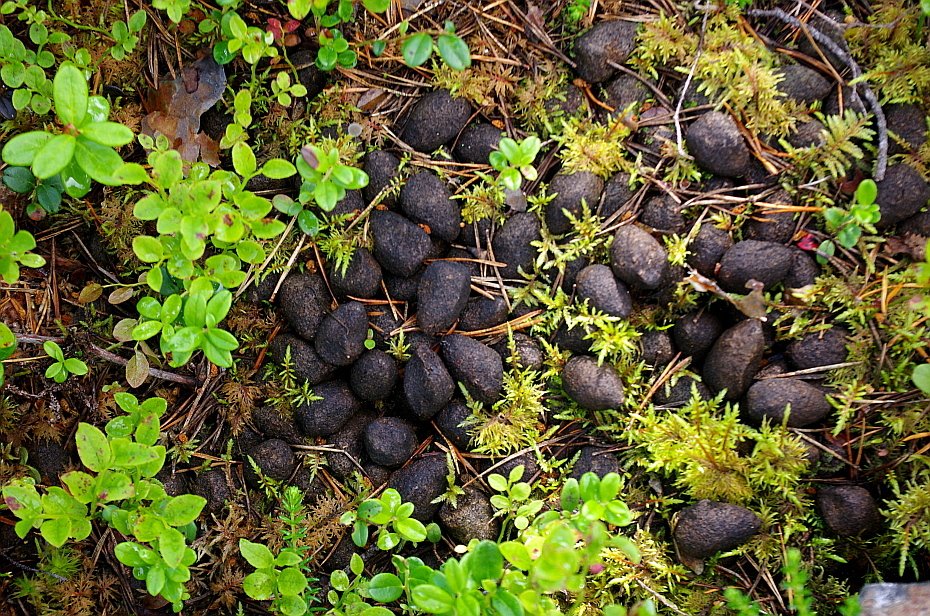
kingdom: Plantae
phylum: Tracheophyta
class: Magnoliopsida
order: Ericales
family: Ericaceae
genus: Vaccinium
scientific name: Vaccinium myrtillus
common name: Bilberry
